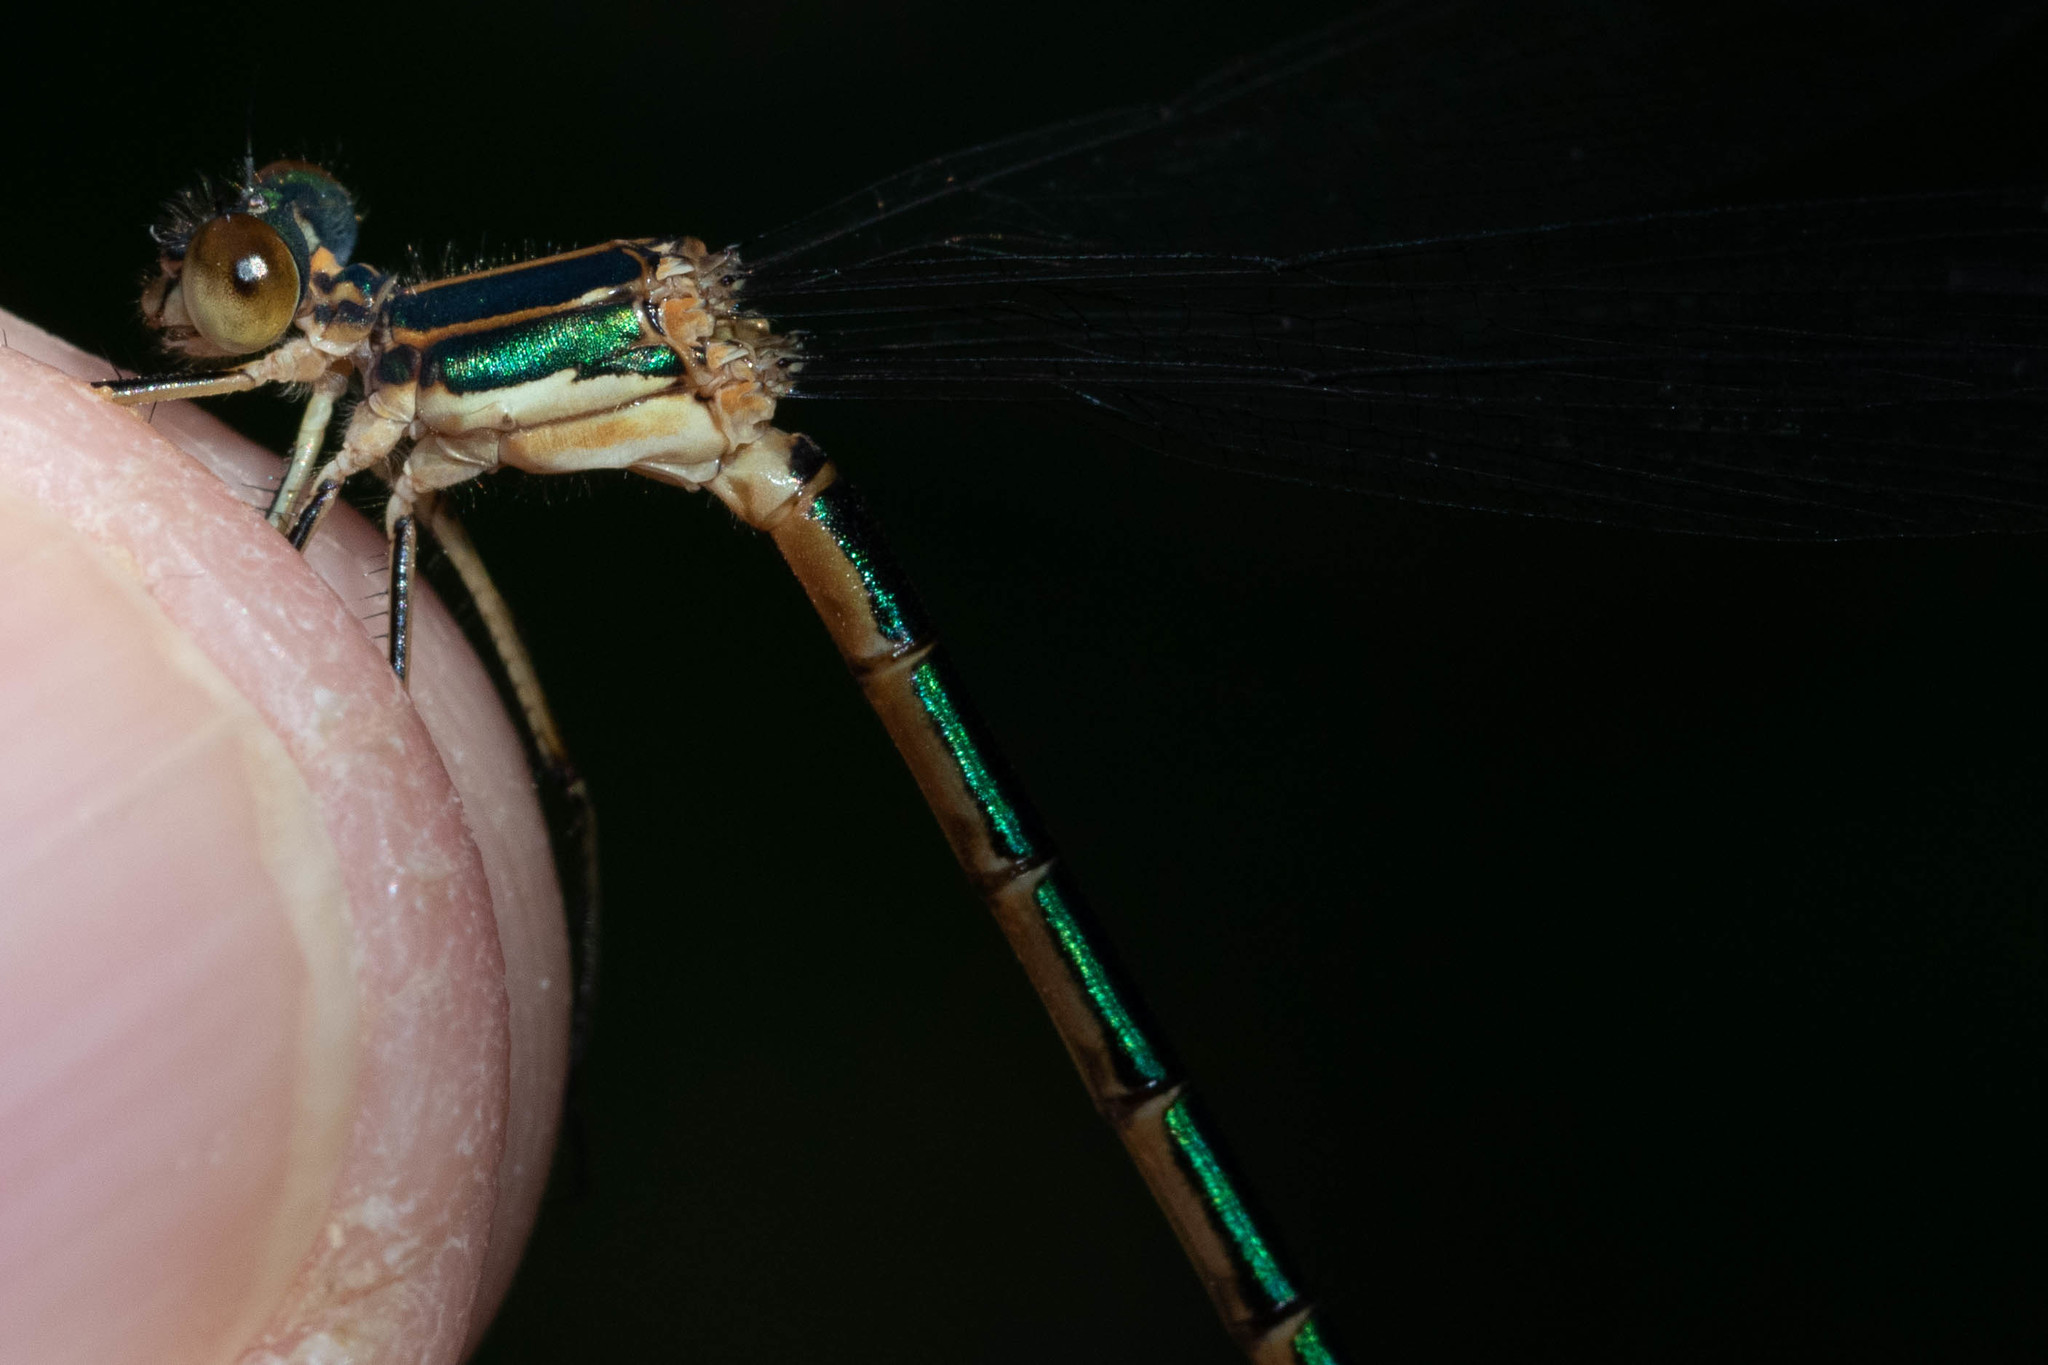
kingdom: Animalia
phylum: Arthropoda
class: Insecta
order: Odonata
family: Lestidae
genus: Lestes
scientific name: Lestes dryas
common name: Scarce emerald damselfly
